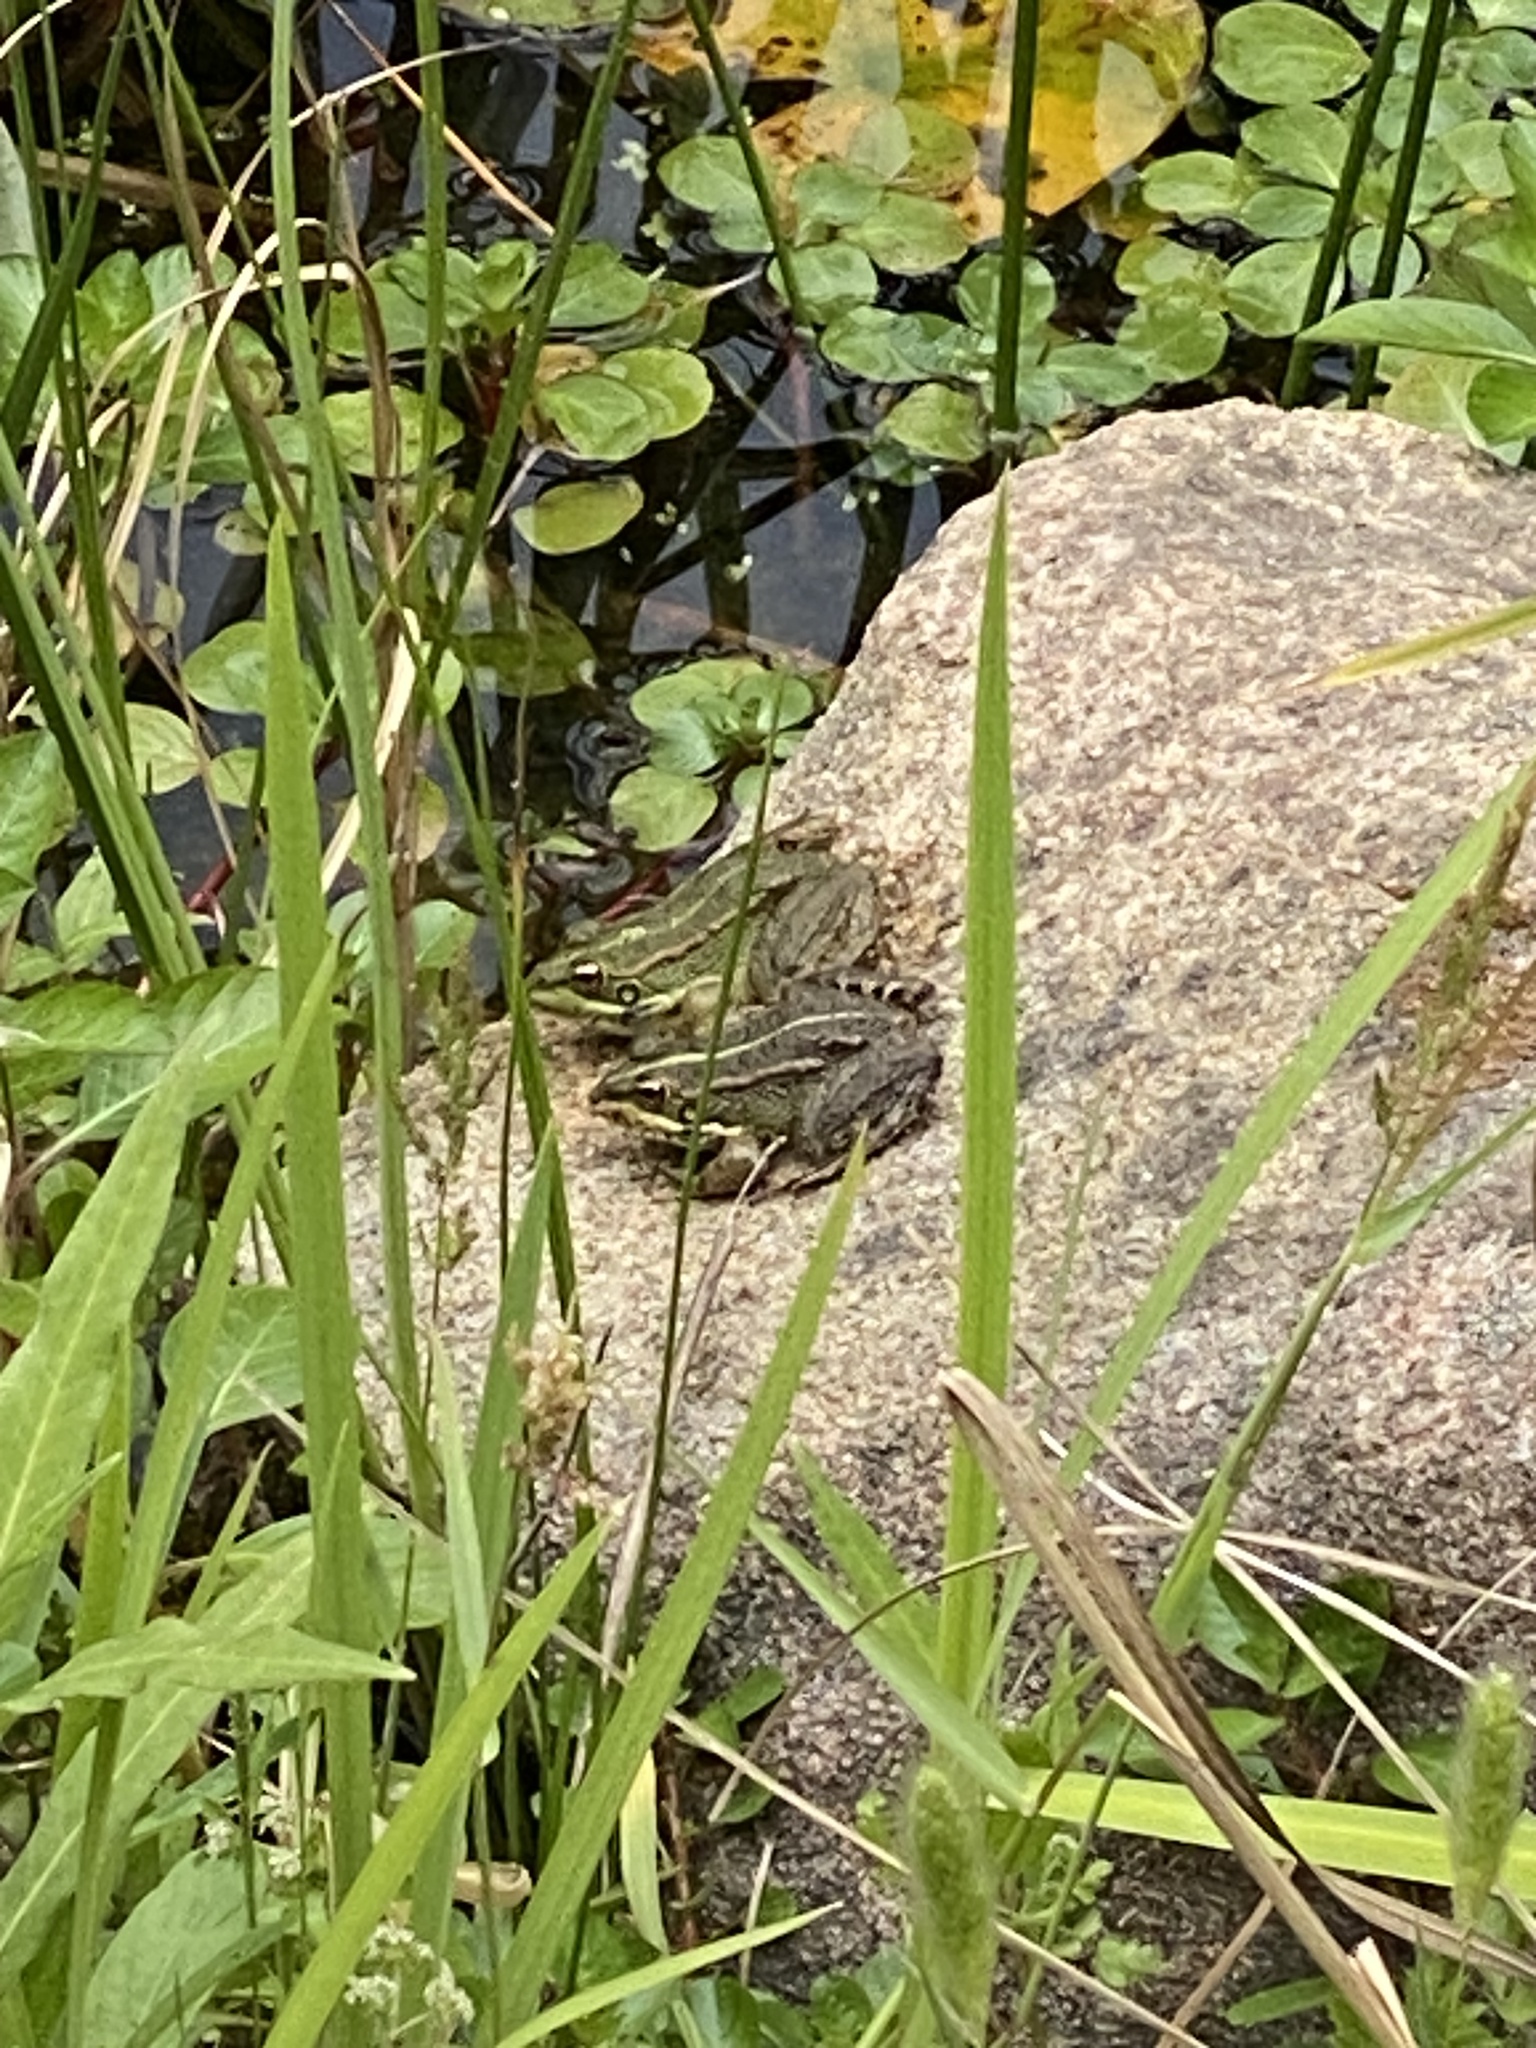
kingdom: Animalia
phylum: Chordata
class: Amphibia
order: Anura
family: Ranidae
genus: Pelophylax
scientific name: Pelophylax perezi
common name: Perez's frog
